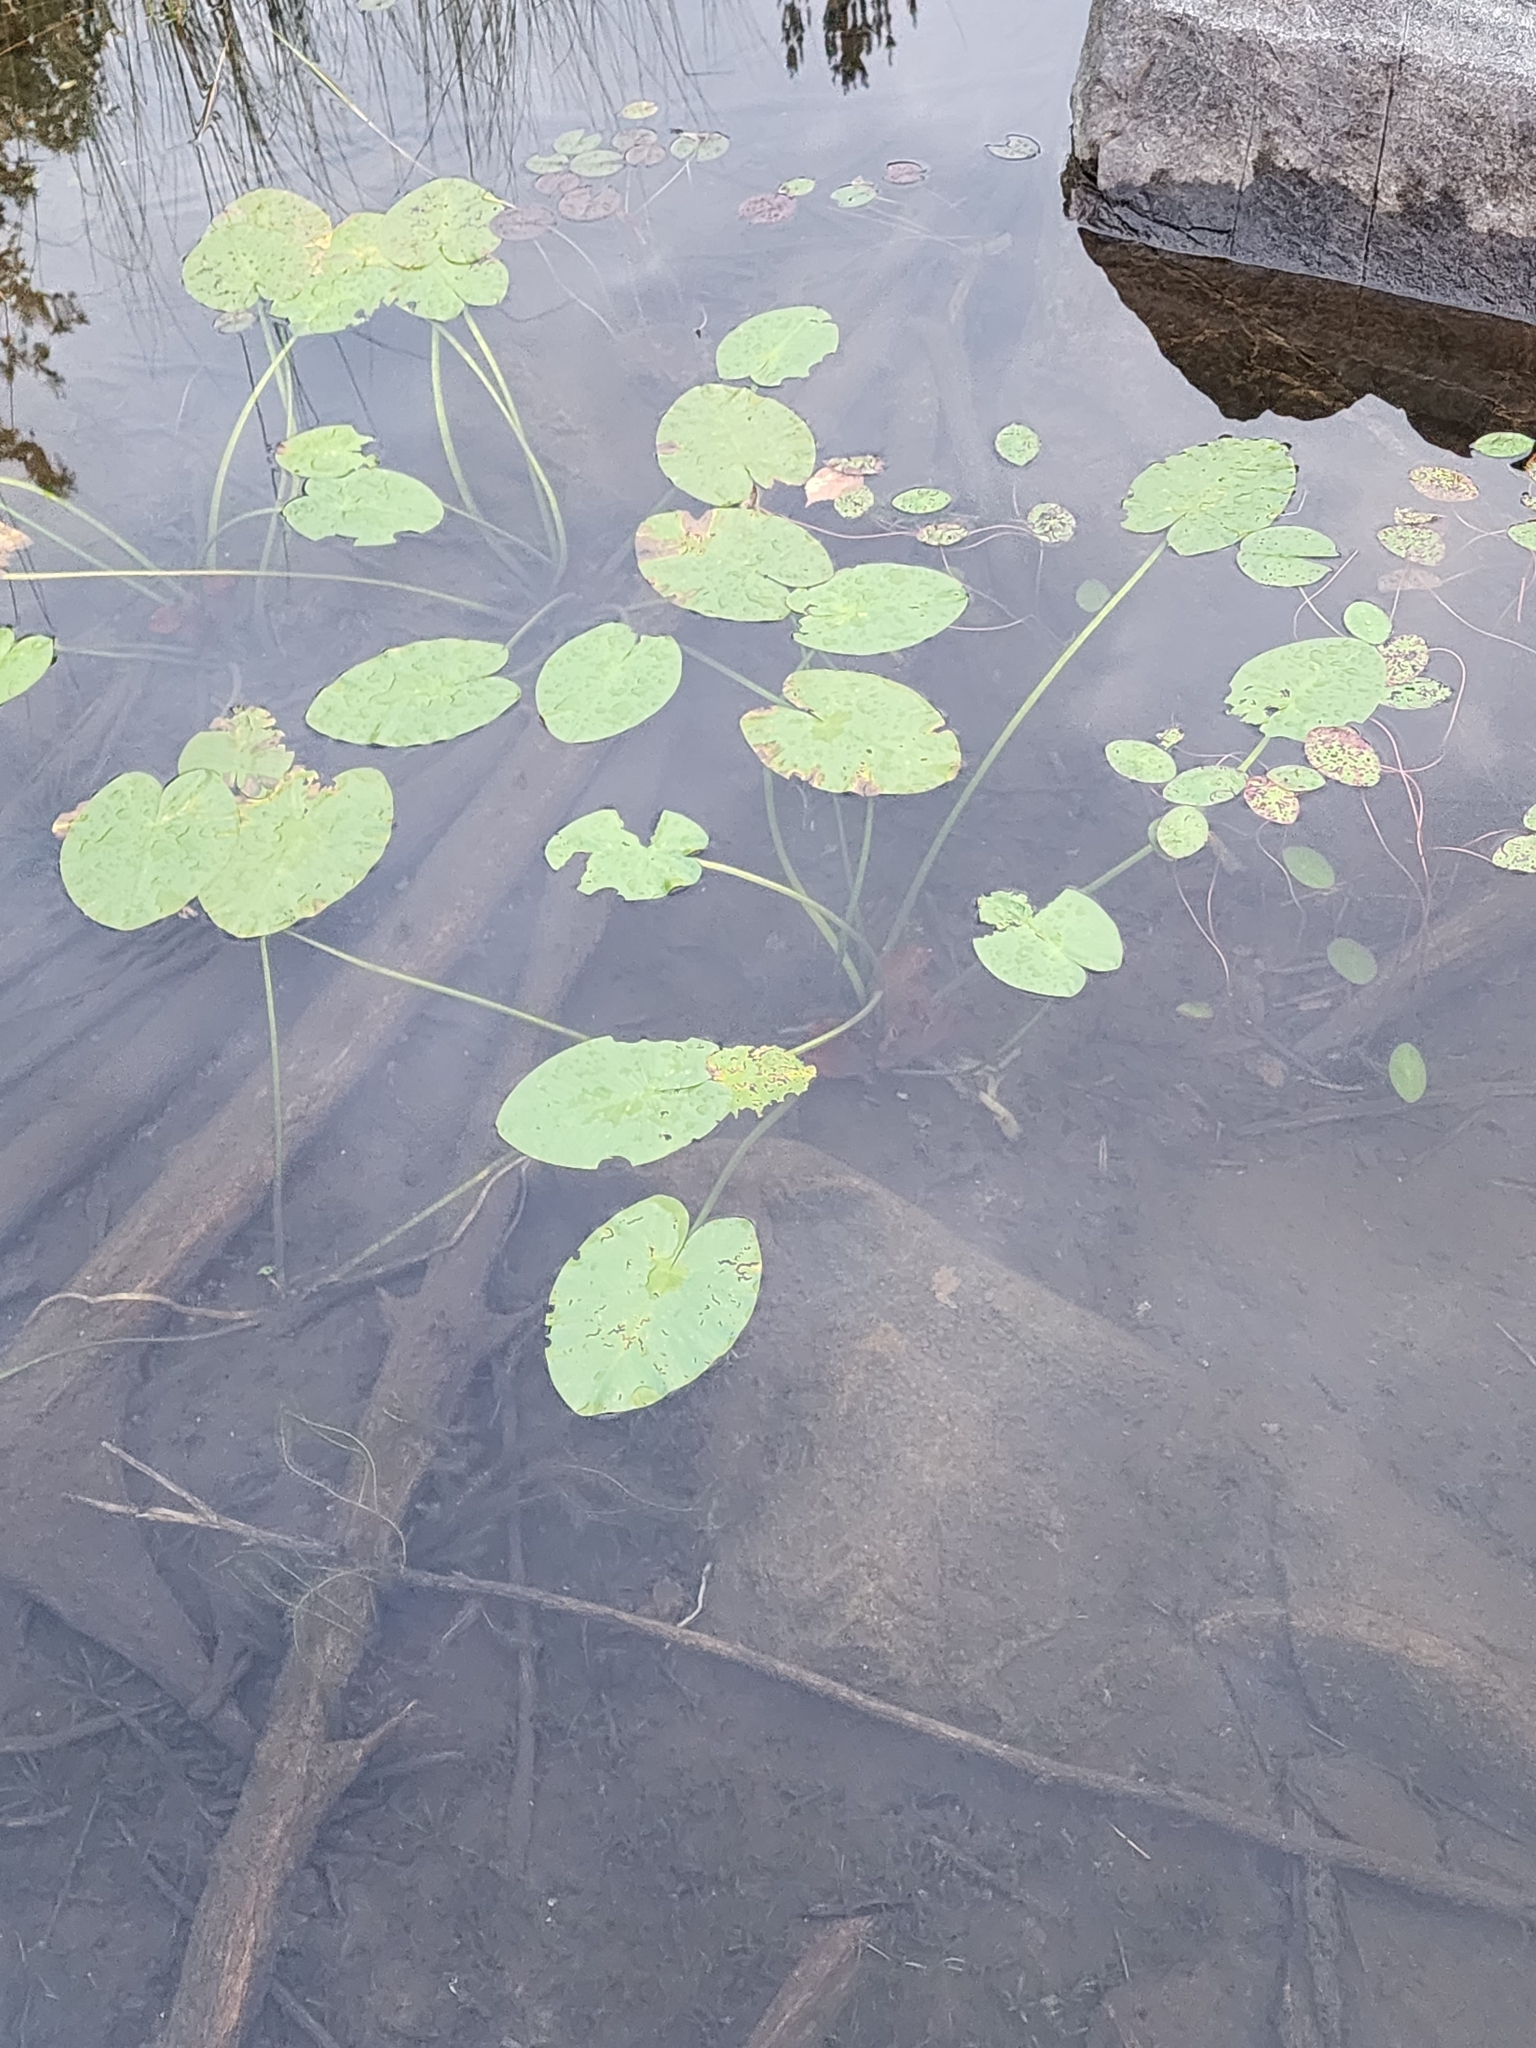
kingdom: Plantae
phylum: Tracheophyta
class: Magnoliopsida
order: Nymphaeales
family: Nymphaeaceae
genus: Nuphar
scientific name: Nuphar variegata
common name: Beaver-root
